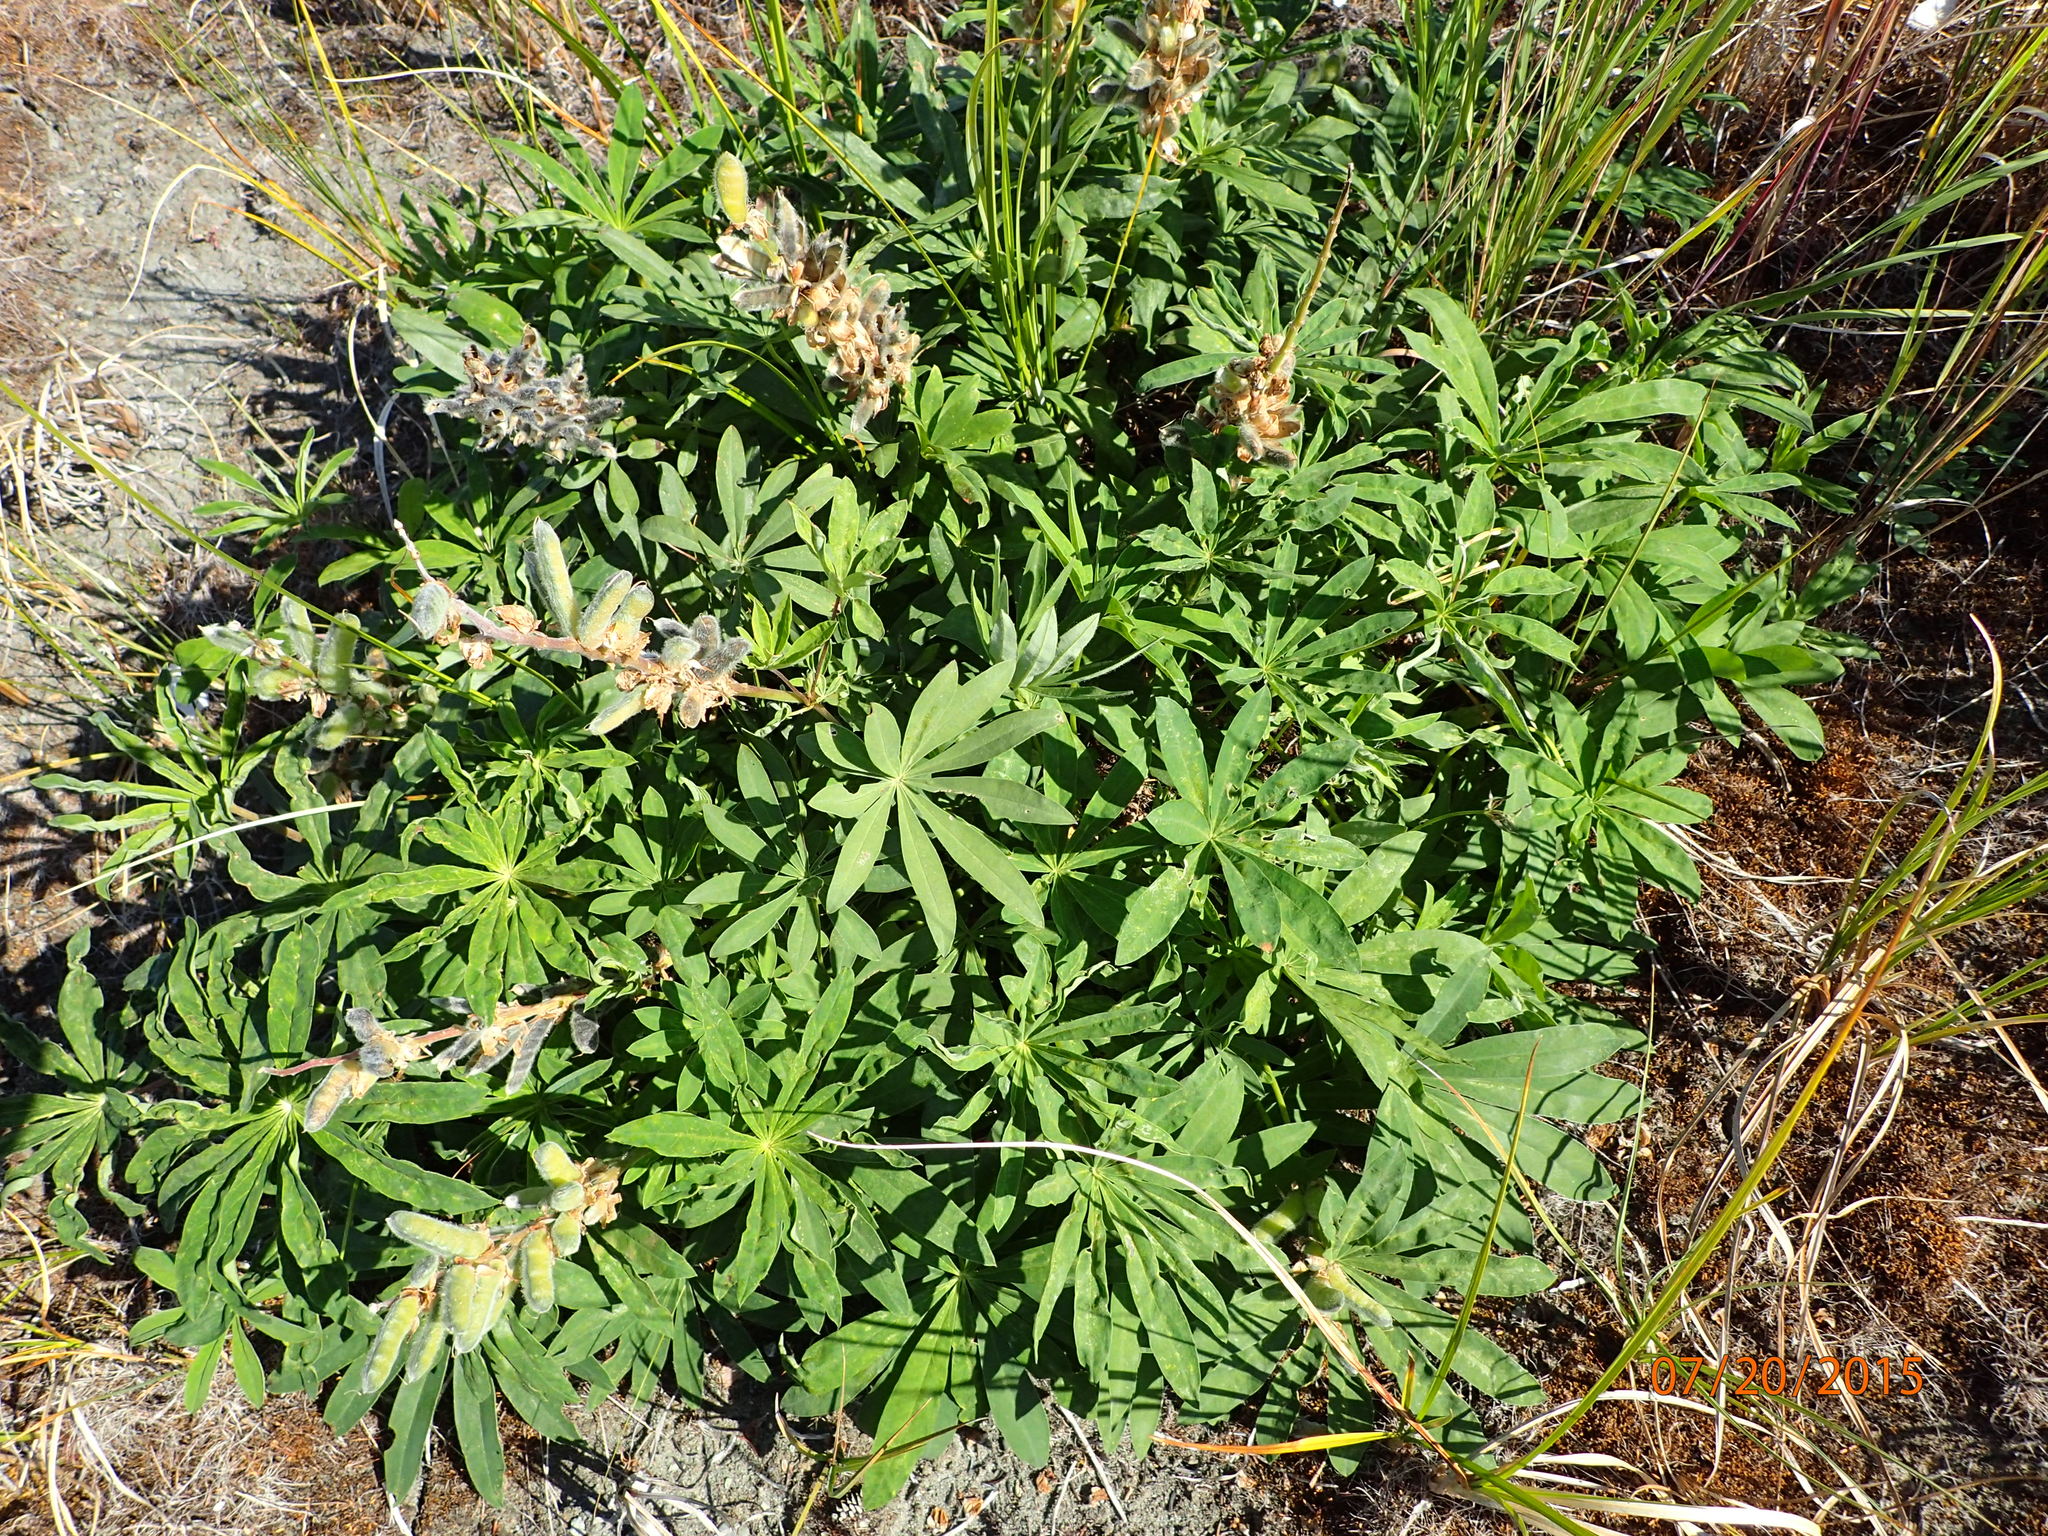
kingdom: Plantae
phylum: Tracheophyta
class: Magnoliopsida
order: Fabales
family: Fabaceae
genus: Lupinus
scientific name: Lupinus polyphyllus
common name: Garden lupin
